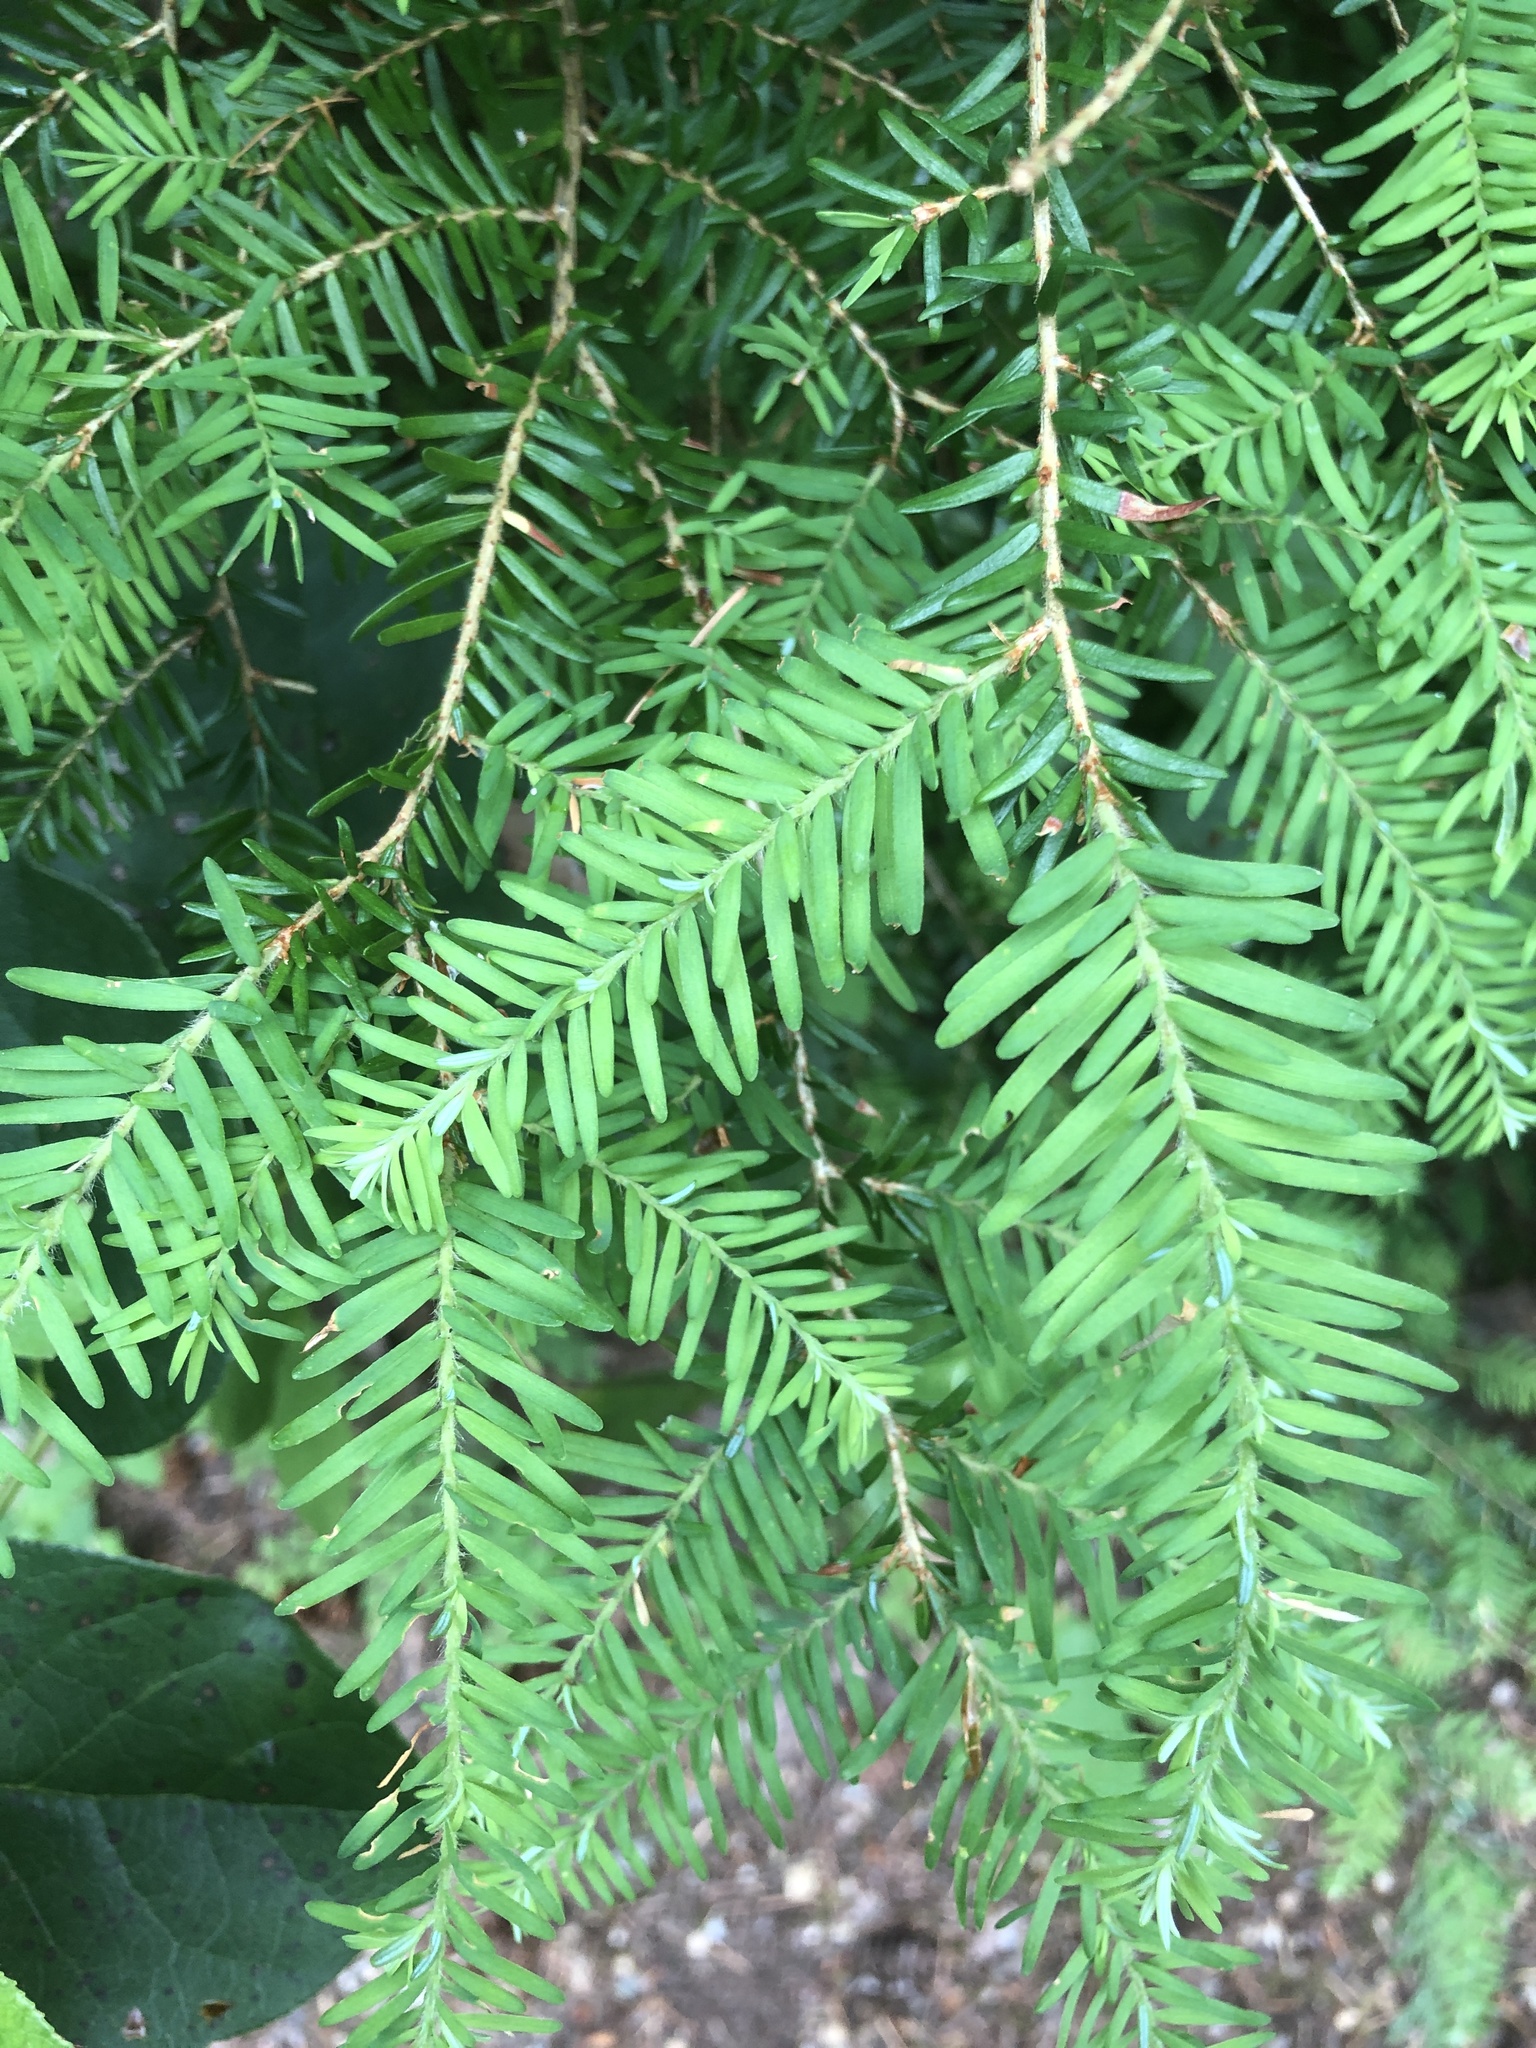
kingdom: Plantae
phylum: Tracheophyta
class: Pinopsida
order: Pinales
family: Pinaceae
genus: Tsuga
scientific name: Tsuga heterophylla
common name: Western hemlock
